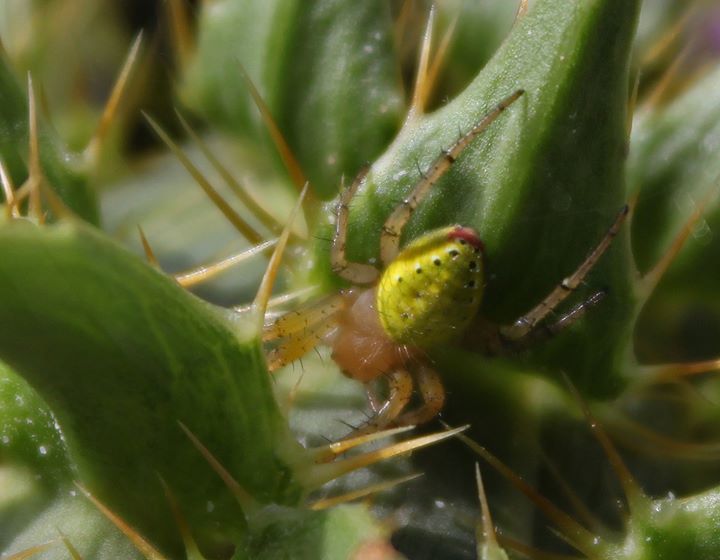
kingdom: Animalia
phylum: Arthropoda
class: Arachnida
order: Araneae
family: Araneidae
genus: Araniella
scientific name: Araniella opisthographa
